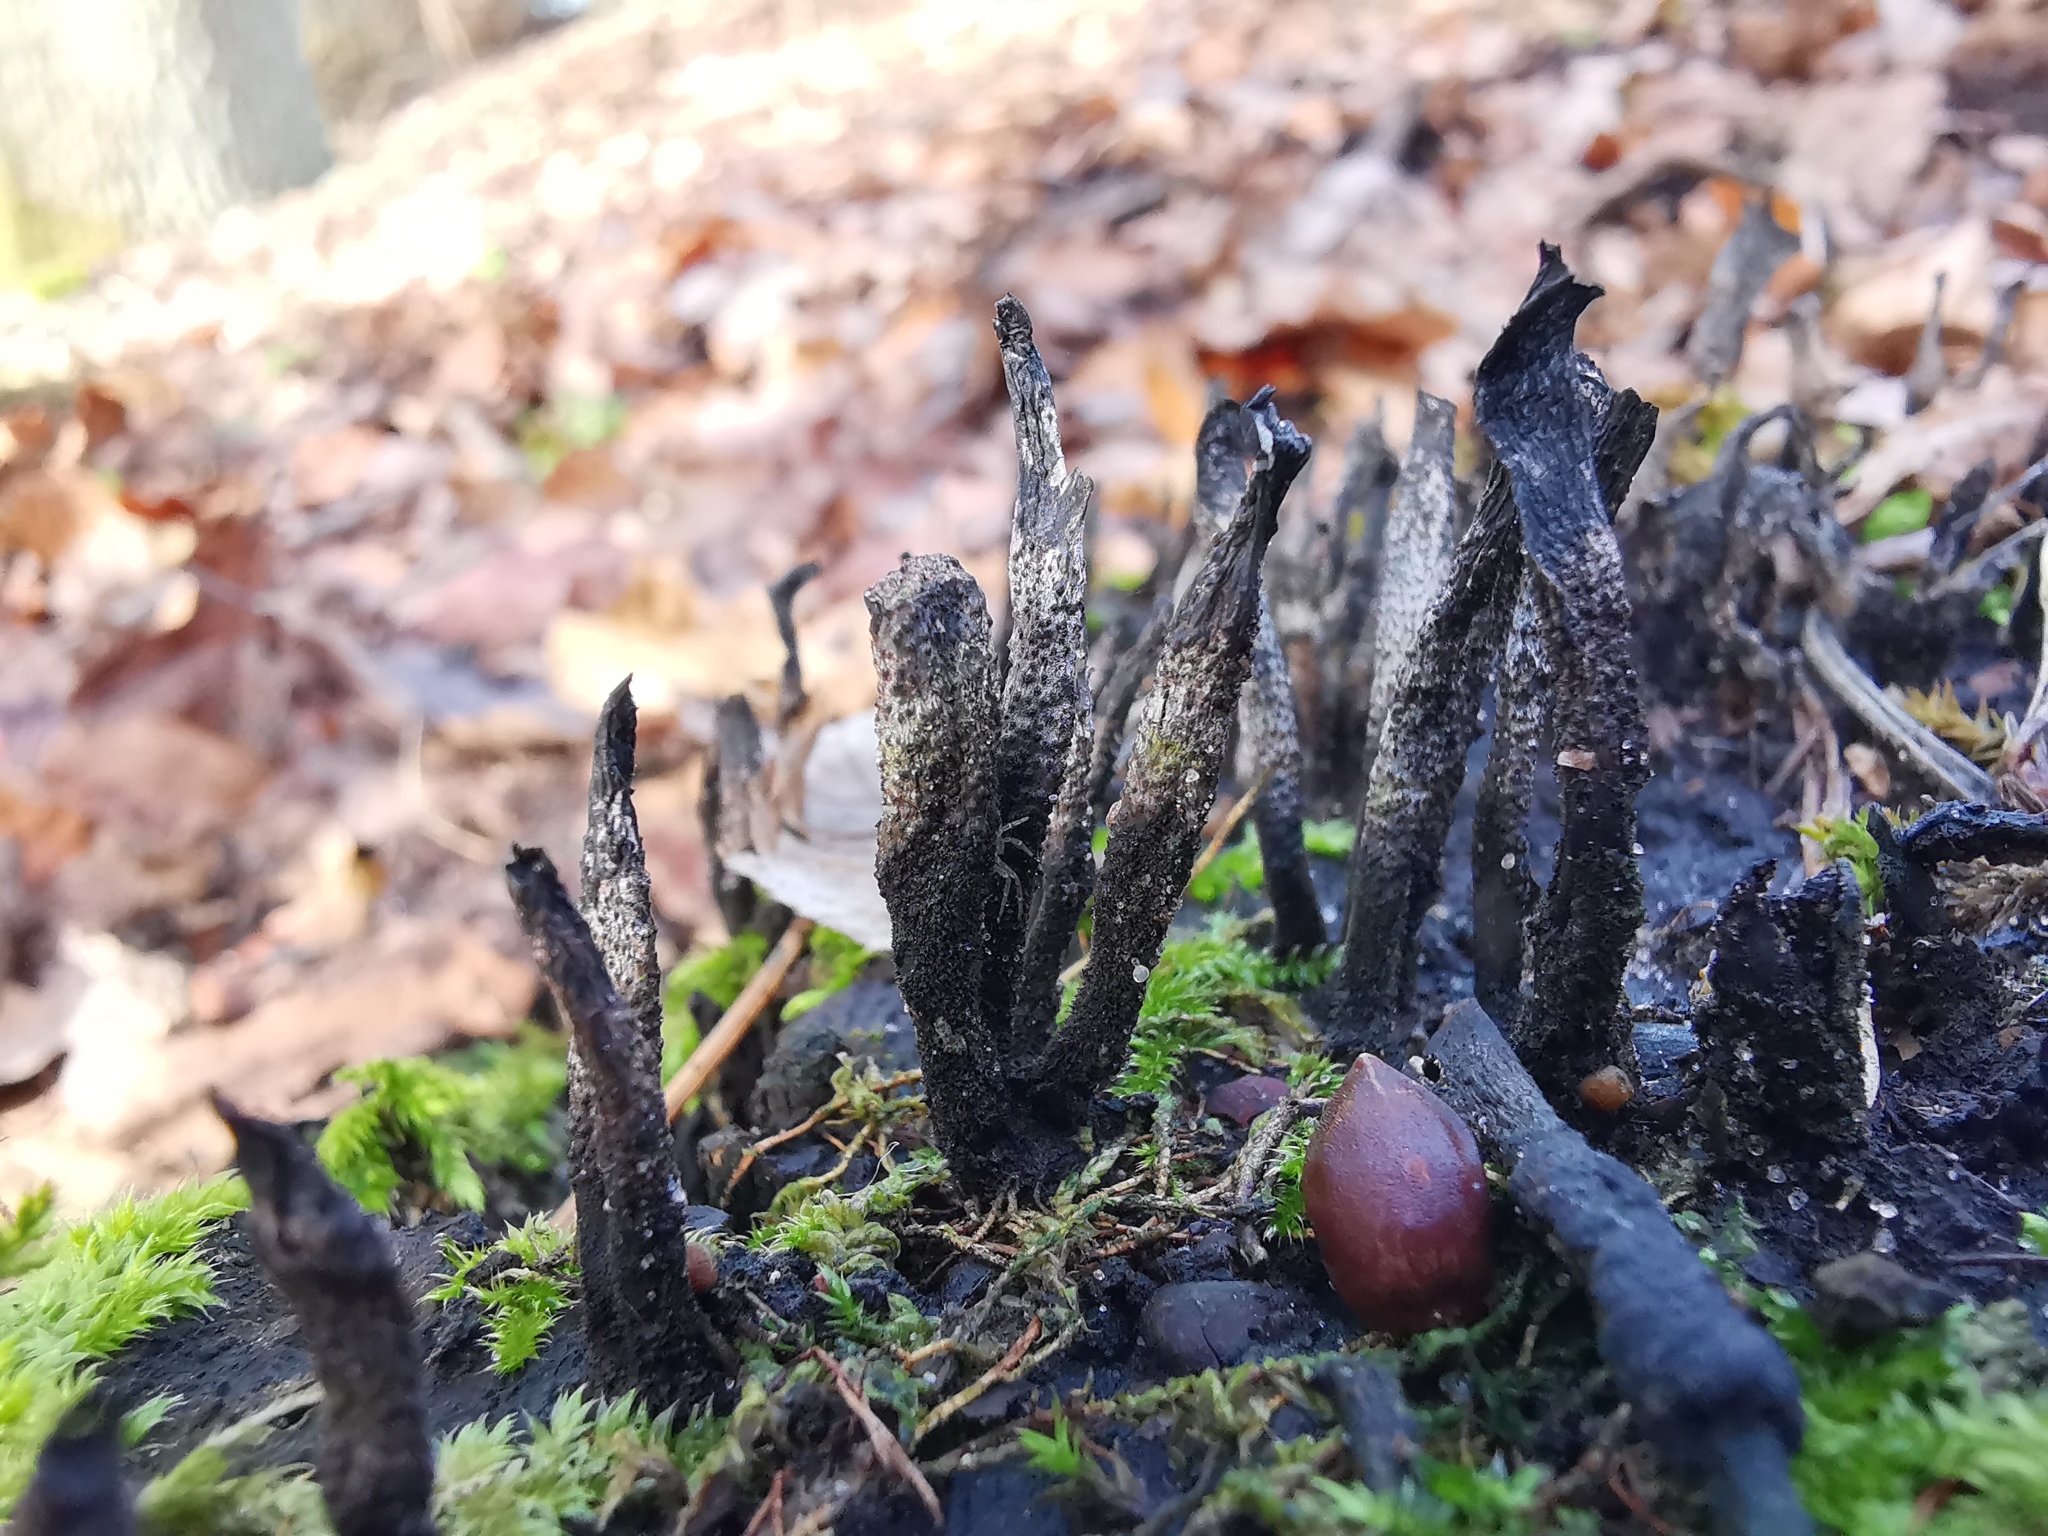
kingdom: Fungi
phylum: Ascomycota
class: Sordariomycetes
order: Xylariales
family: Xylariaceae
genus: Xylaria
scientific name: Xylaria hypoxylon
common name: Candle-snuff fungus
